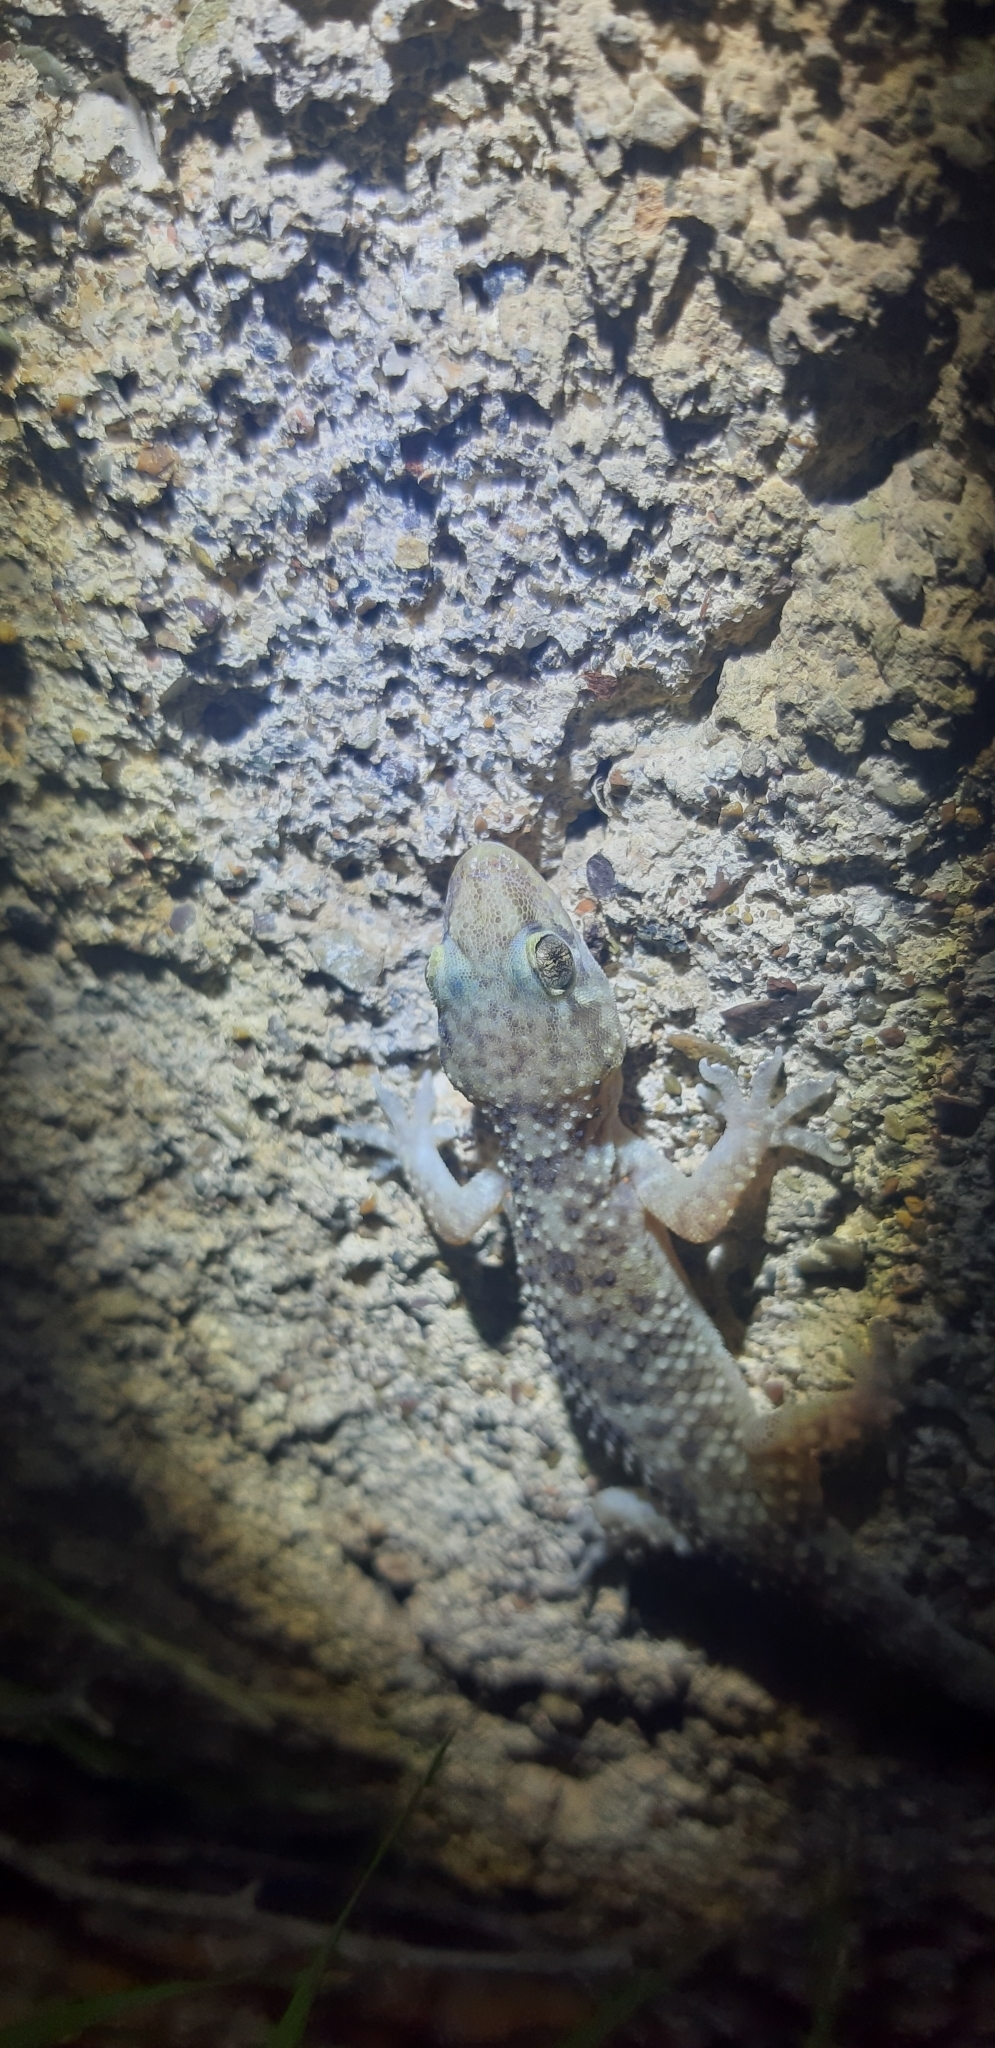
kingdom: Animalia
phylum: Chordata
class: Squamata
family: Gekkonidae
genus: Hemidactylus
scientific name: Hemidactylus turcicus
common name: Turkish gecko
